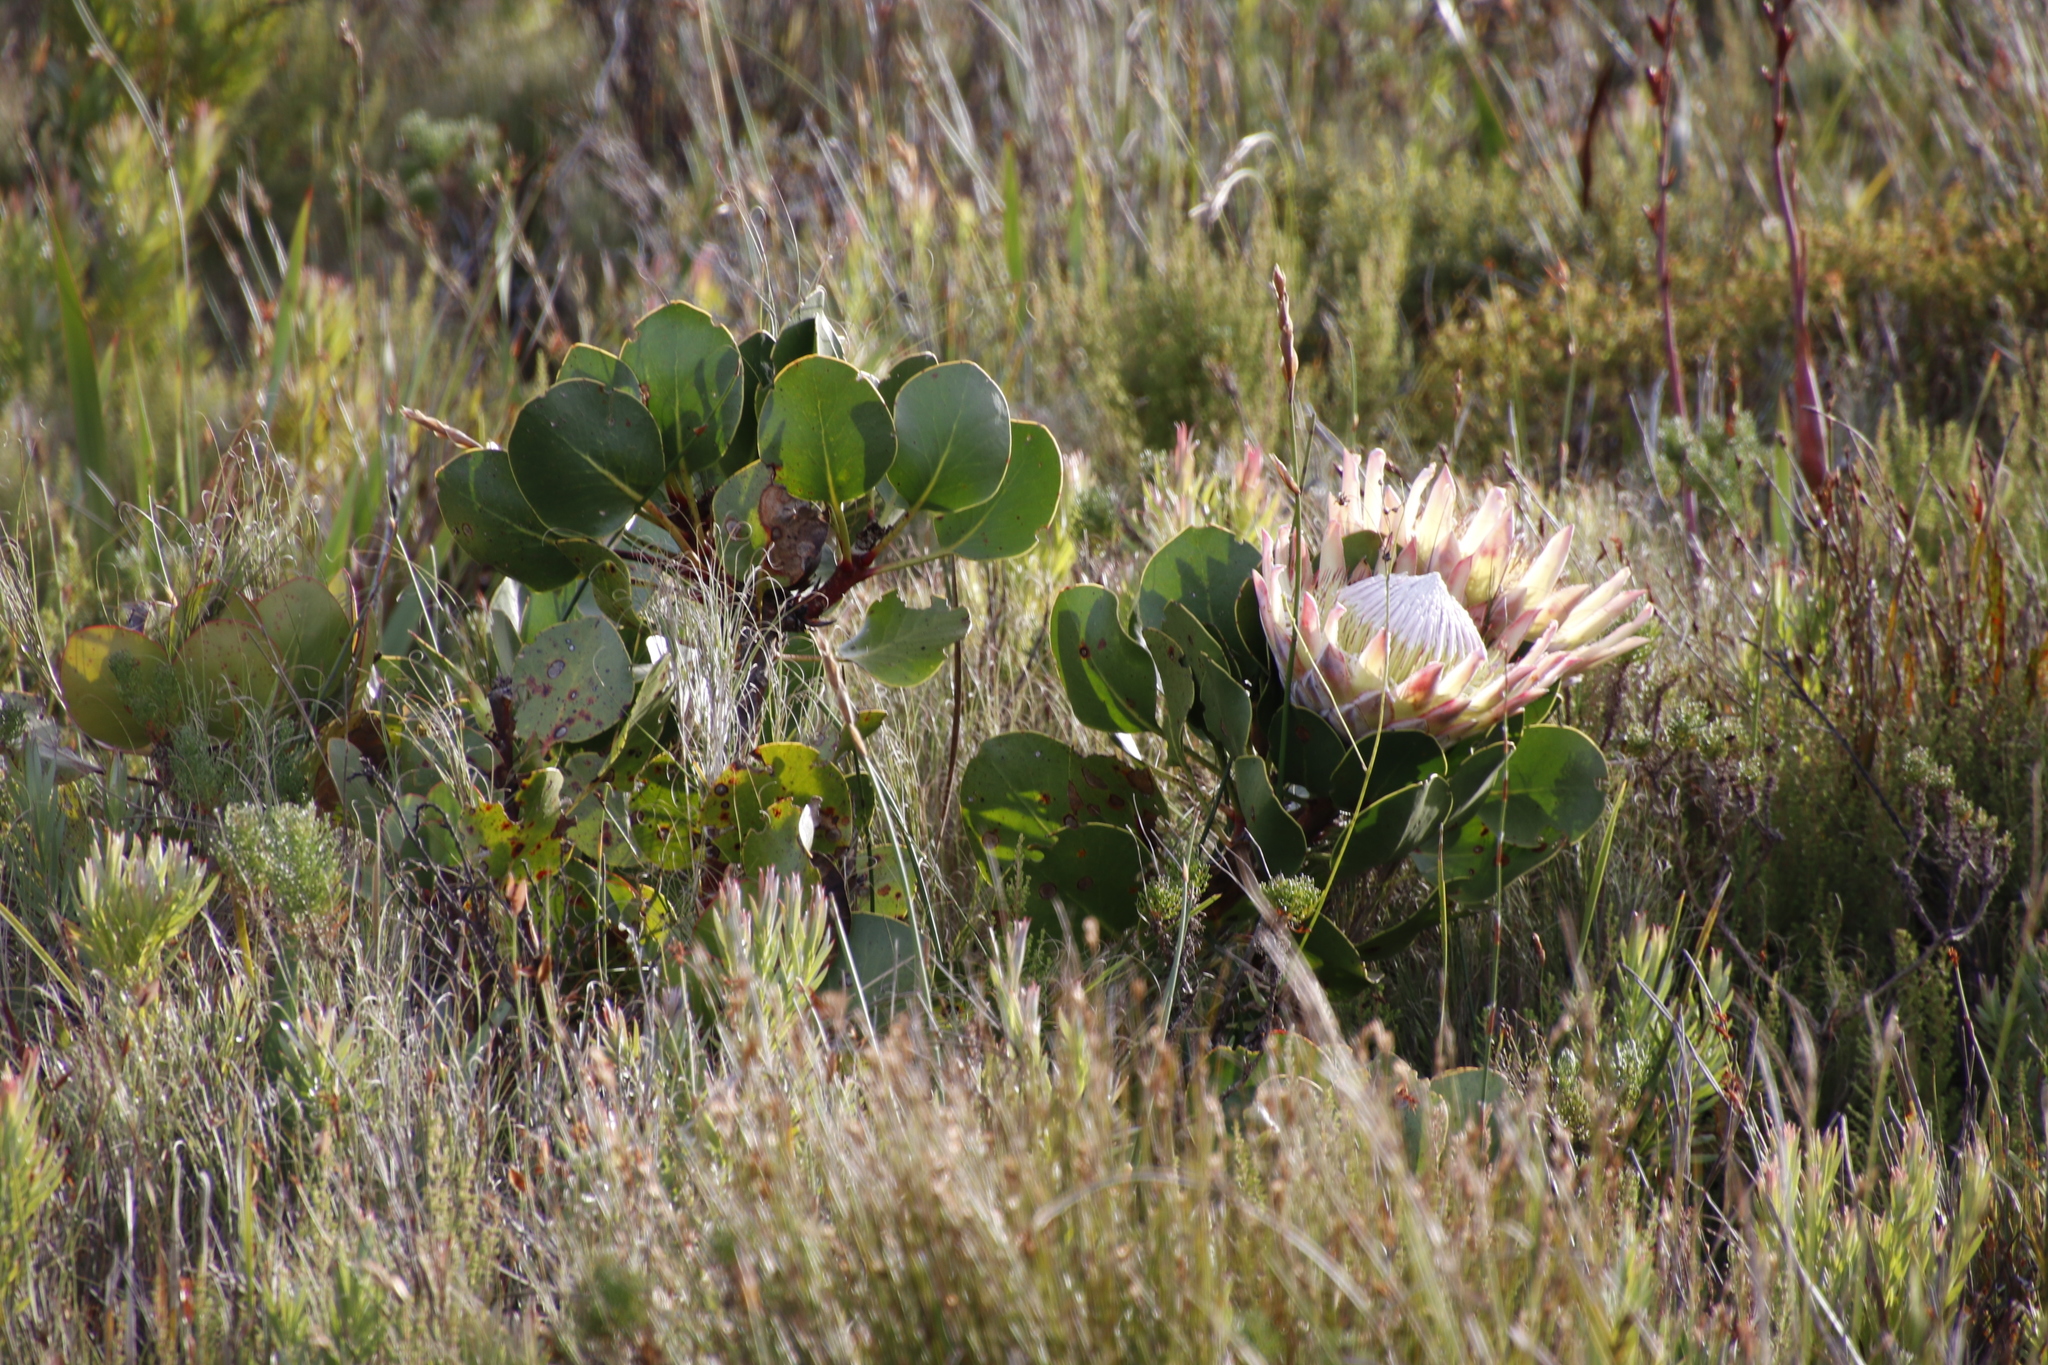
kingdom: Plantae
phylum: Tracheophyta
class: Magnoliopsida
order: Proteales
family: Proteaceae
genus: Protea
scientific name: Protea cynaroides
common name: King protea
